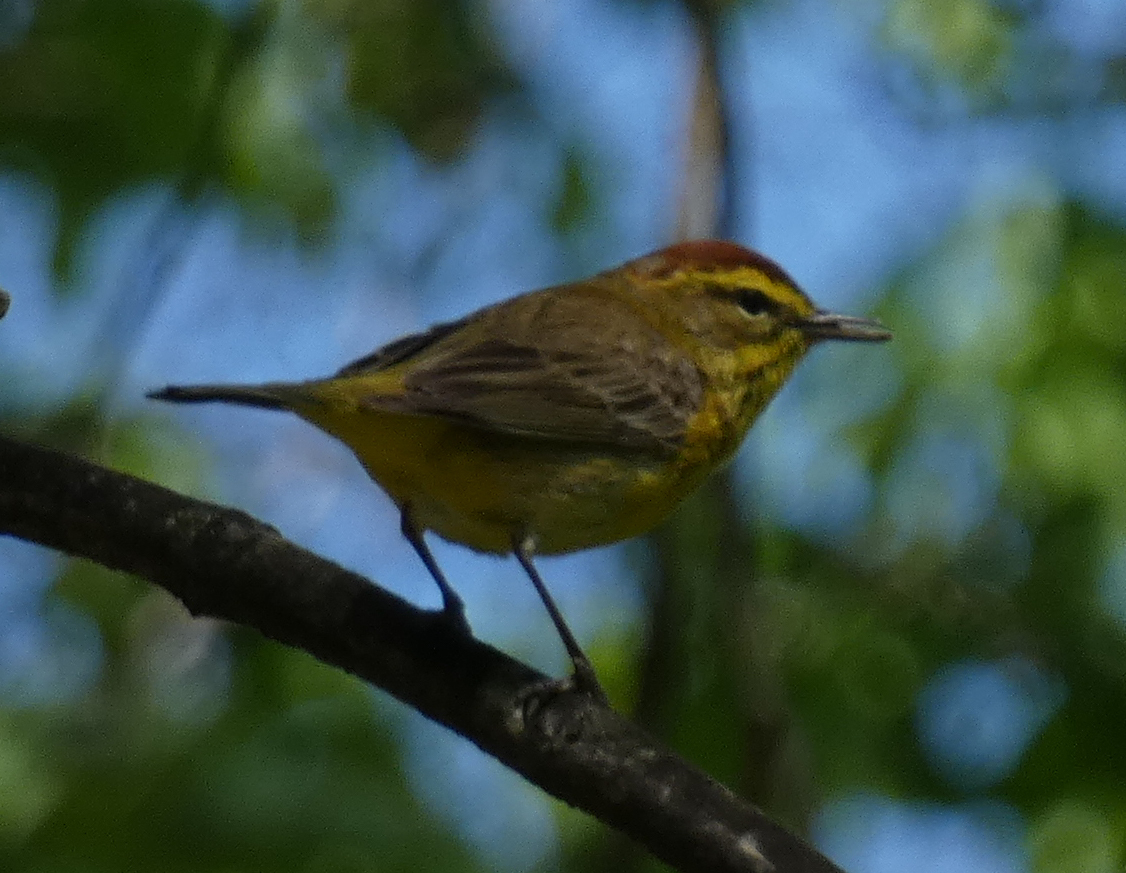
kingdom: Animalia
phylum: Chordata
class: Aves
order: Passeriformes
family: Parulidae
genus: Setophaga
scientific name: Setophaga palmarum
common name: Palm warbler
